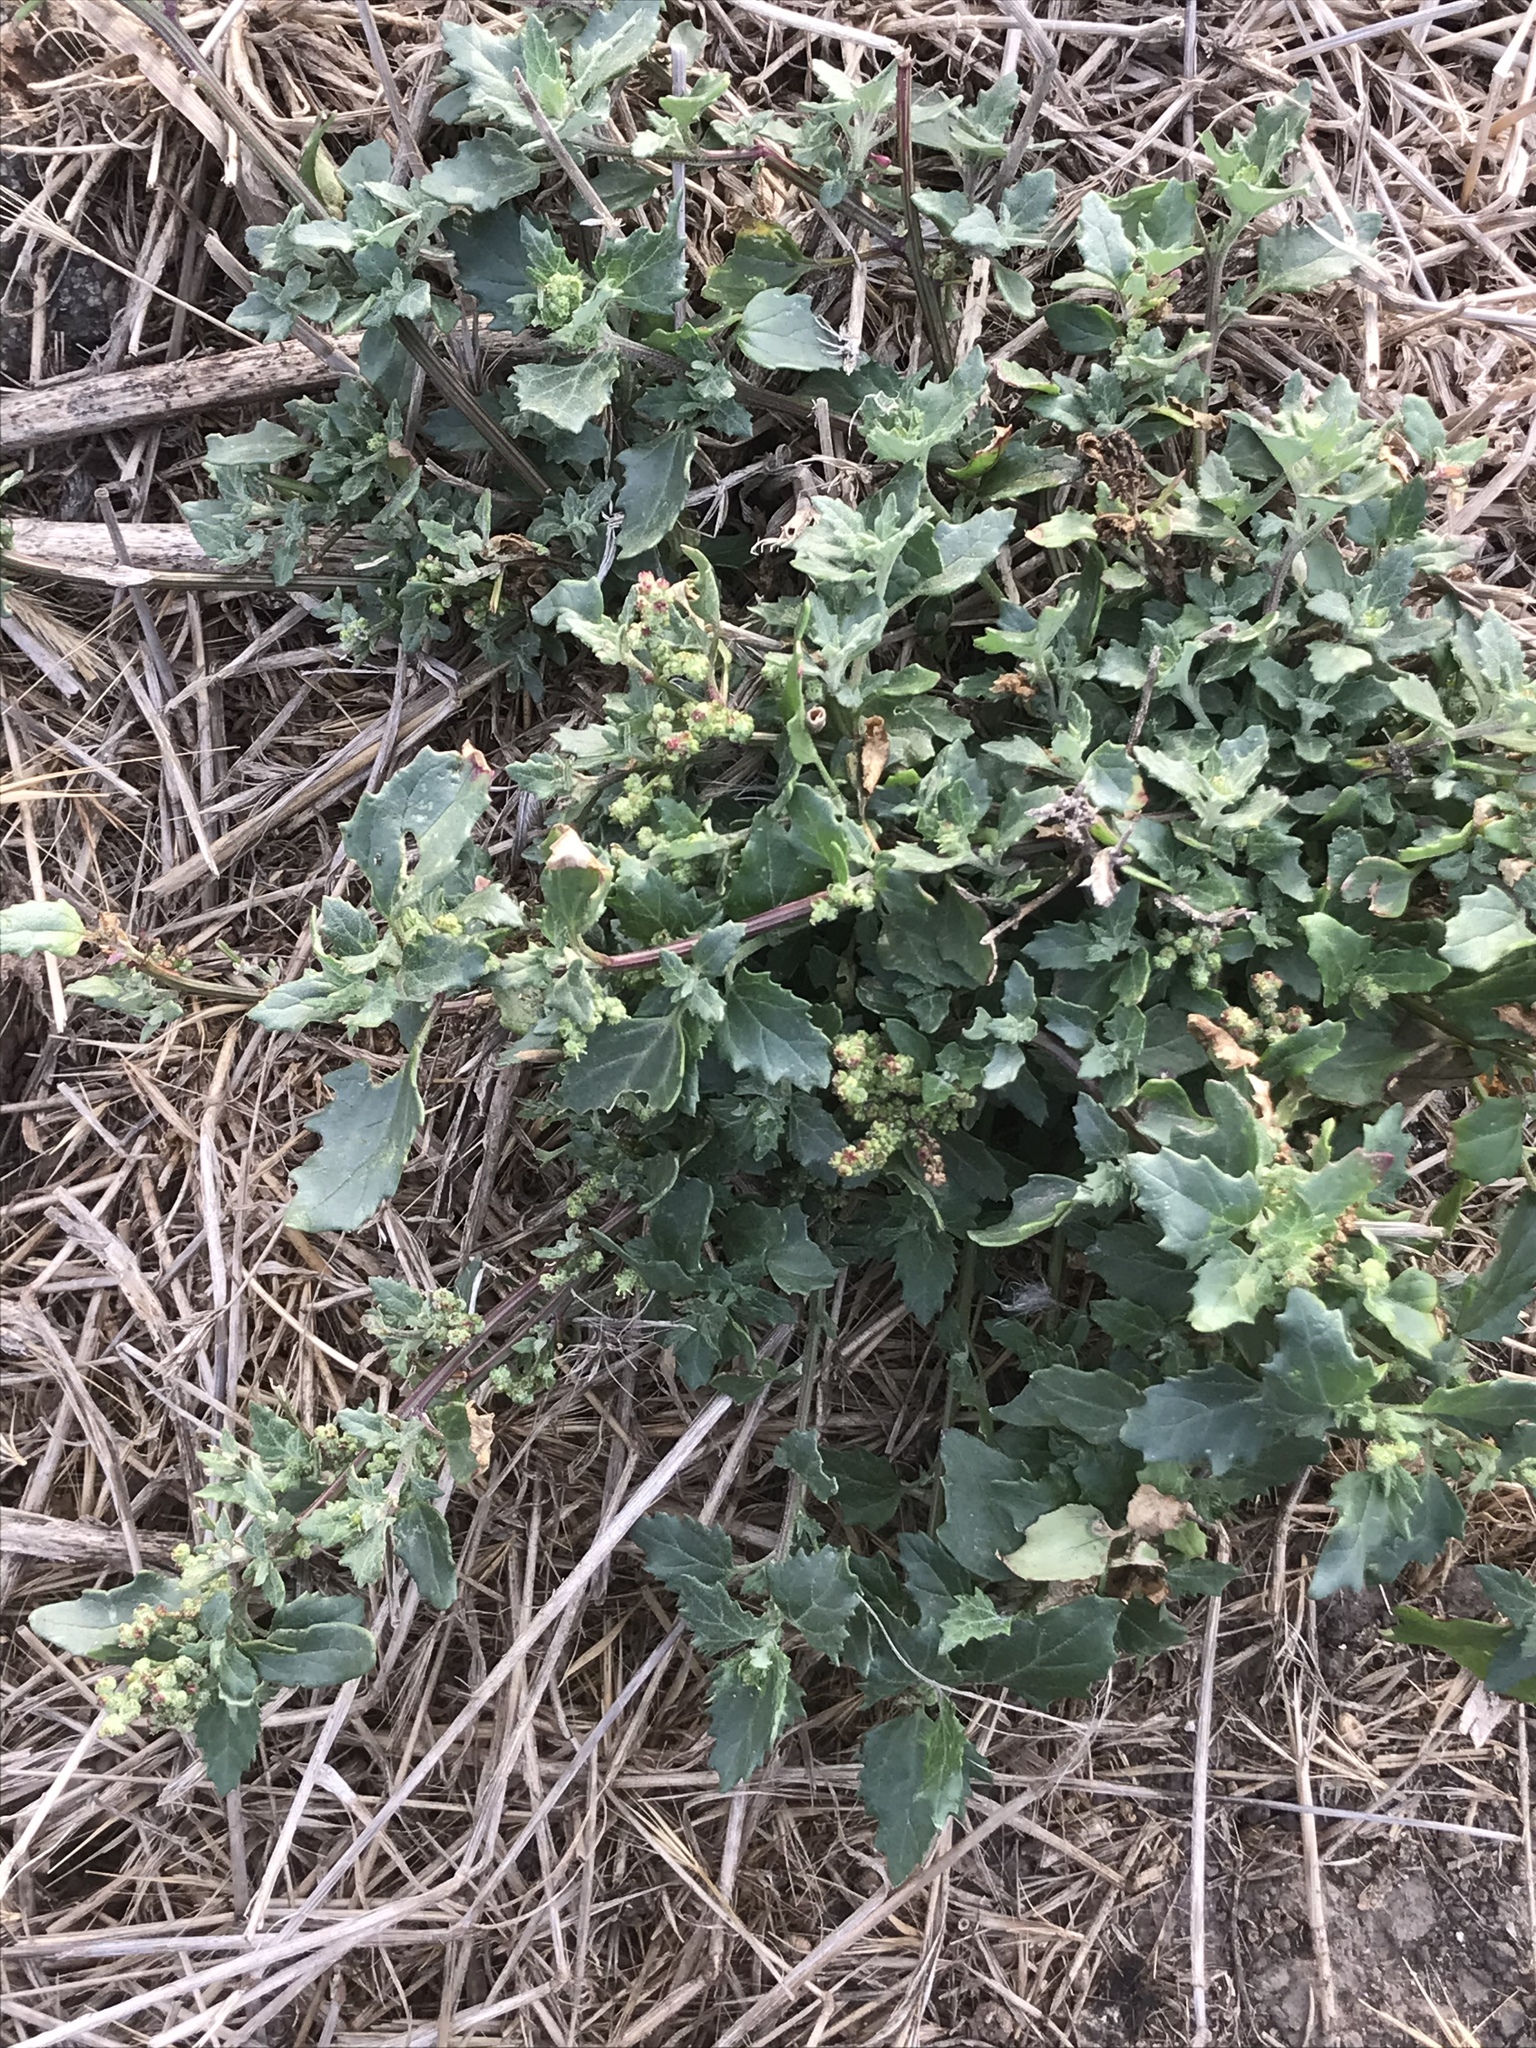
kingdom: Plantae
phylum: Tracheophyta
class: Magnoliopsida
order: Caryophyllales
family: Amaranthaceae
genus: Chenopodiastrum
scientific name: Chenopodiastrum murale
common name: Sowbane
